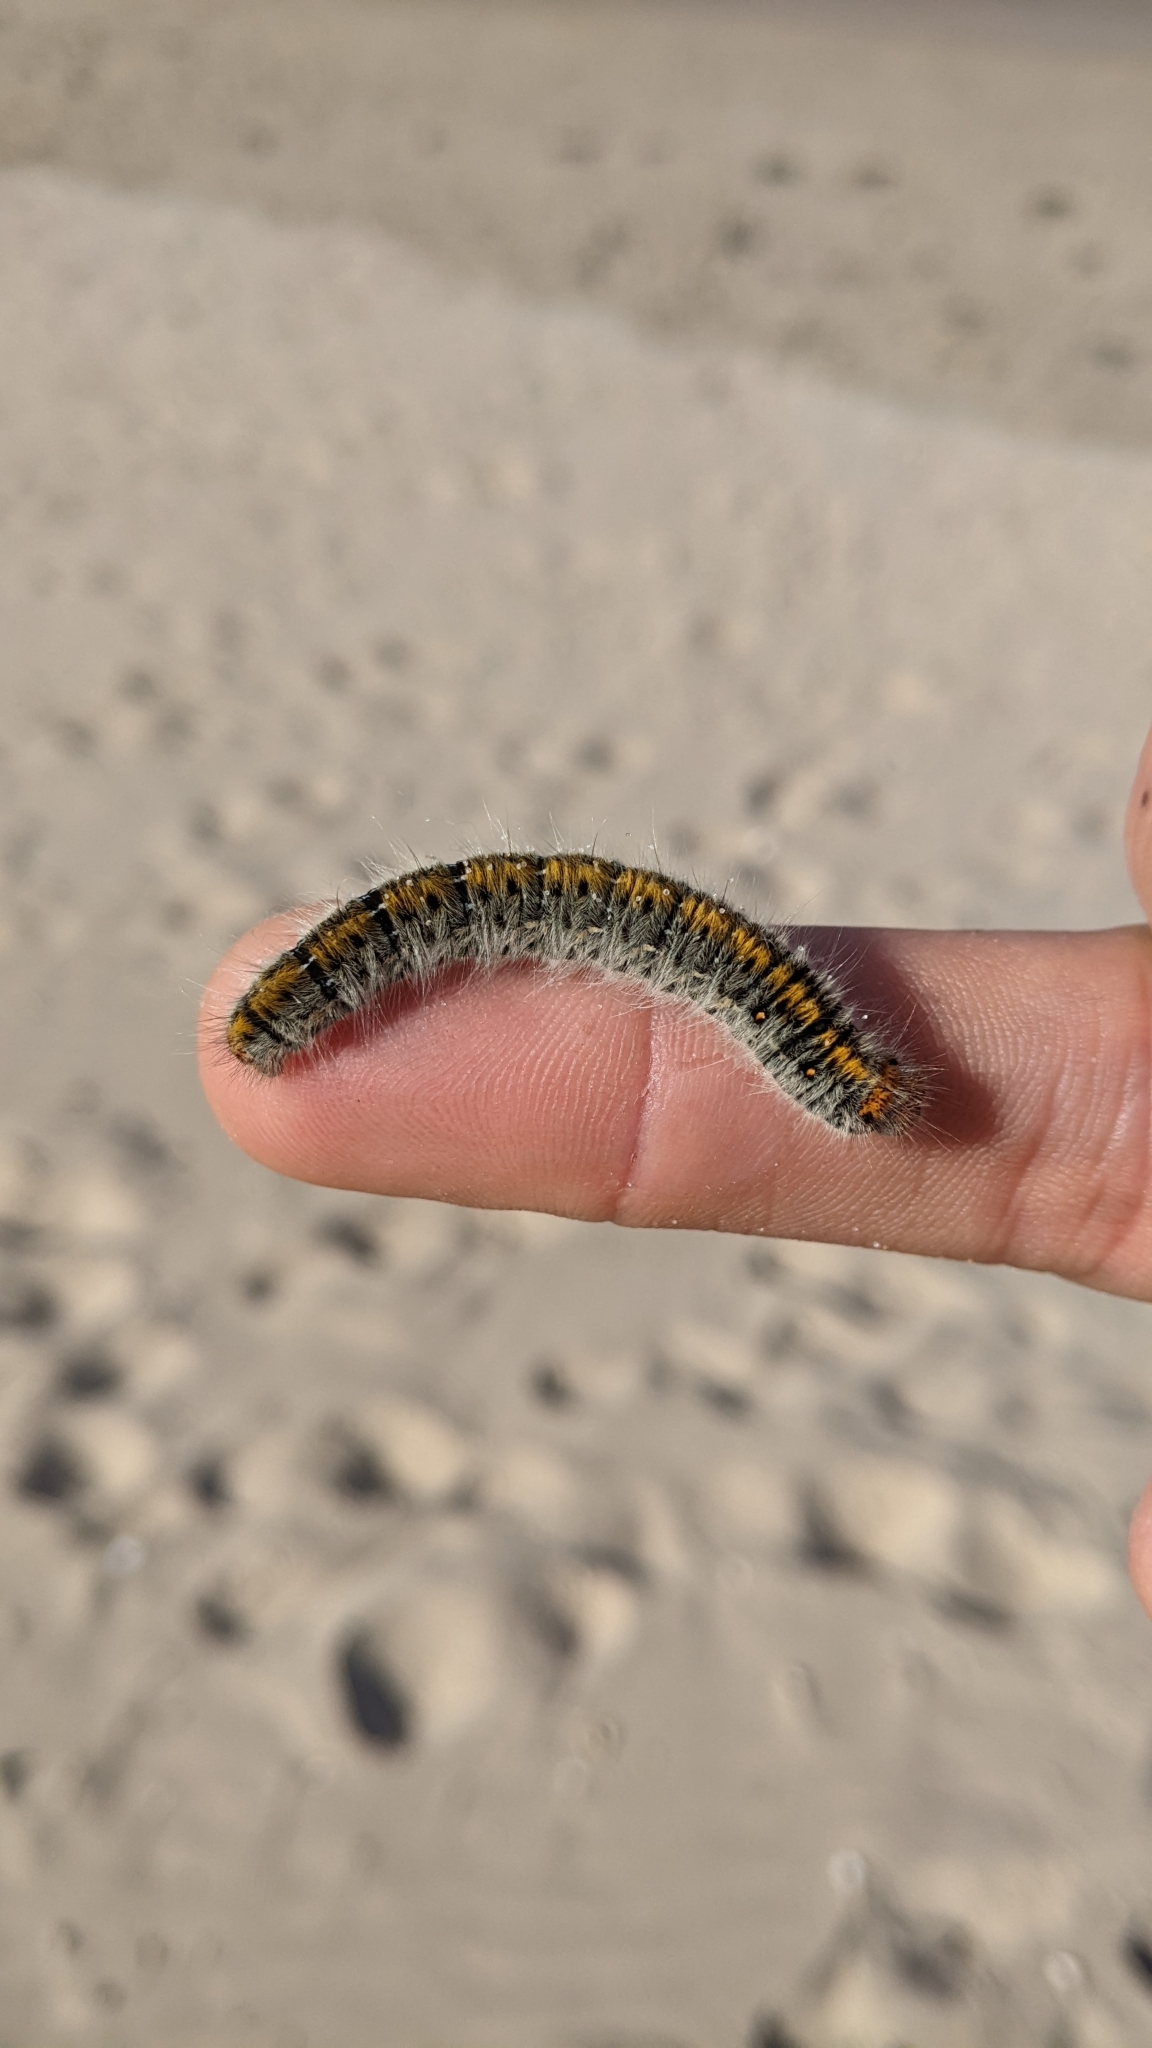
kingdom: Animalia
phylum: Arthropoda
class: Insecta
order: Lepidoptera
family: Lasiocampidae
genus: Lasiocampa
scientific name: Lasiocampa trifolii
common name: Grass eggar
